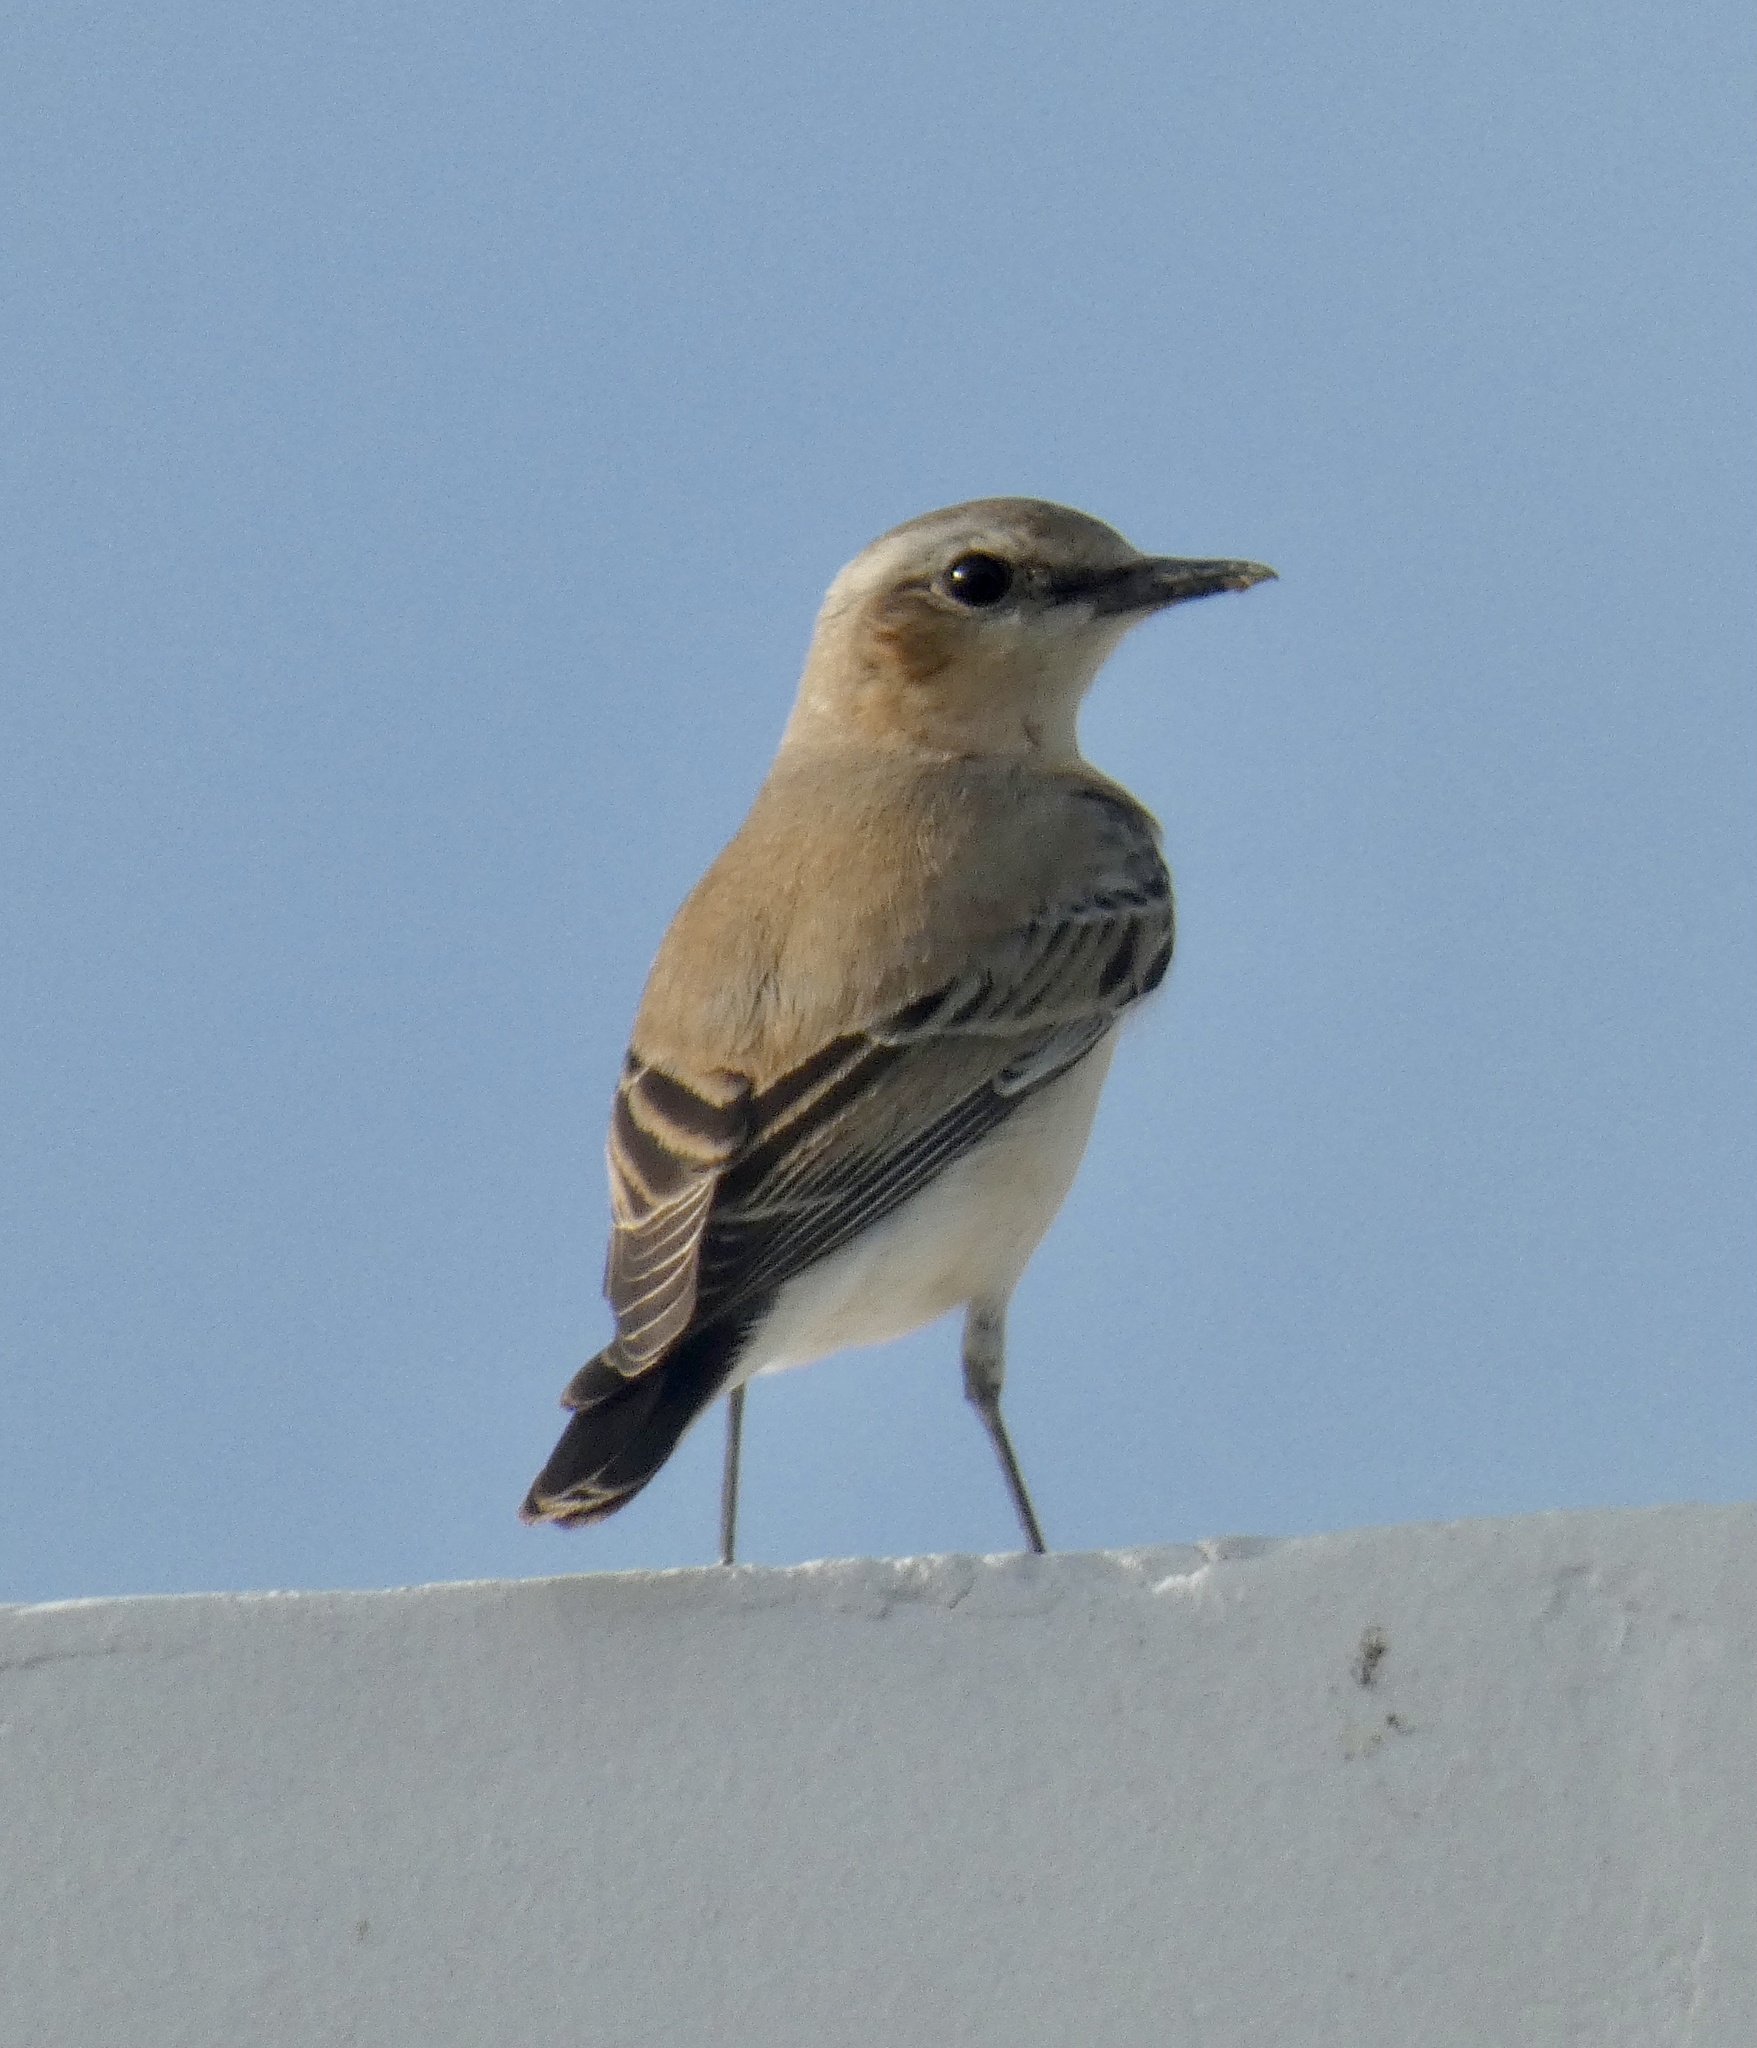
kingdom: Animalia
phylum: Chordata
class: Aves
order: Passeriformes
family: Muscicapidae
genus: Oenanthe
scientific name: Oenanthe oenanthe
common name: Northern wheatear
